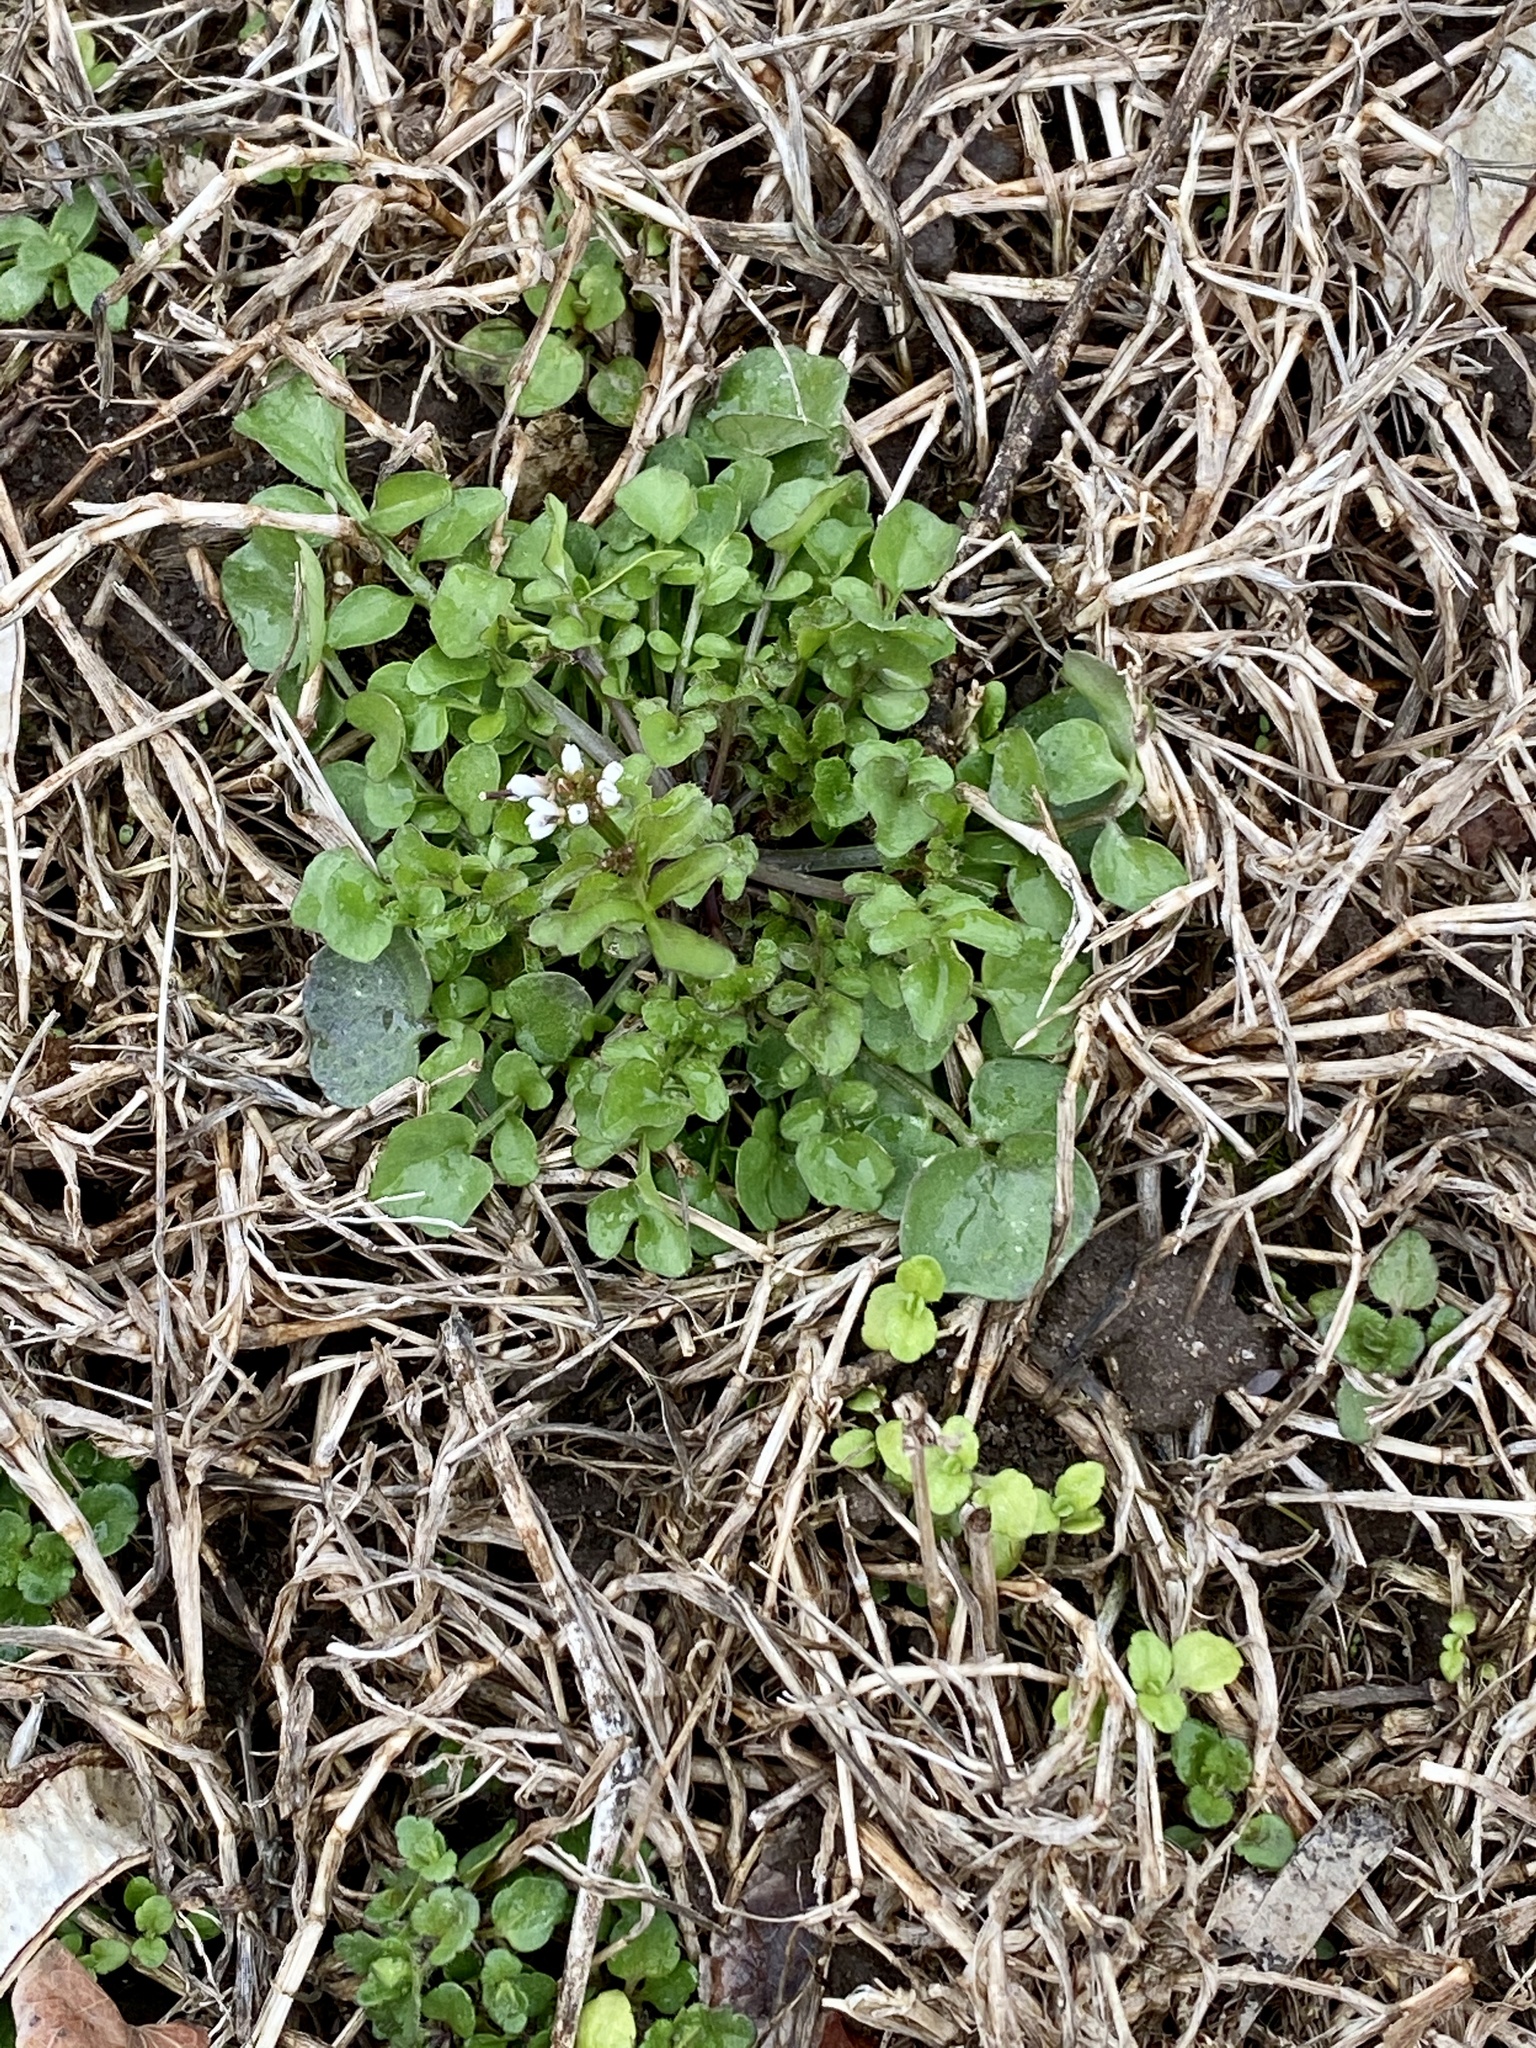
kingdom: Plantae
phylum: Tracheophyta
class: Magnoliopsida
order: Brassicales
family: Brassicaceae
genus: Cardamine
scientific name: Cardamine hirsuta
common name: Hairy bittercress
